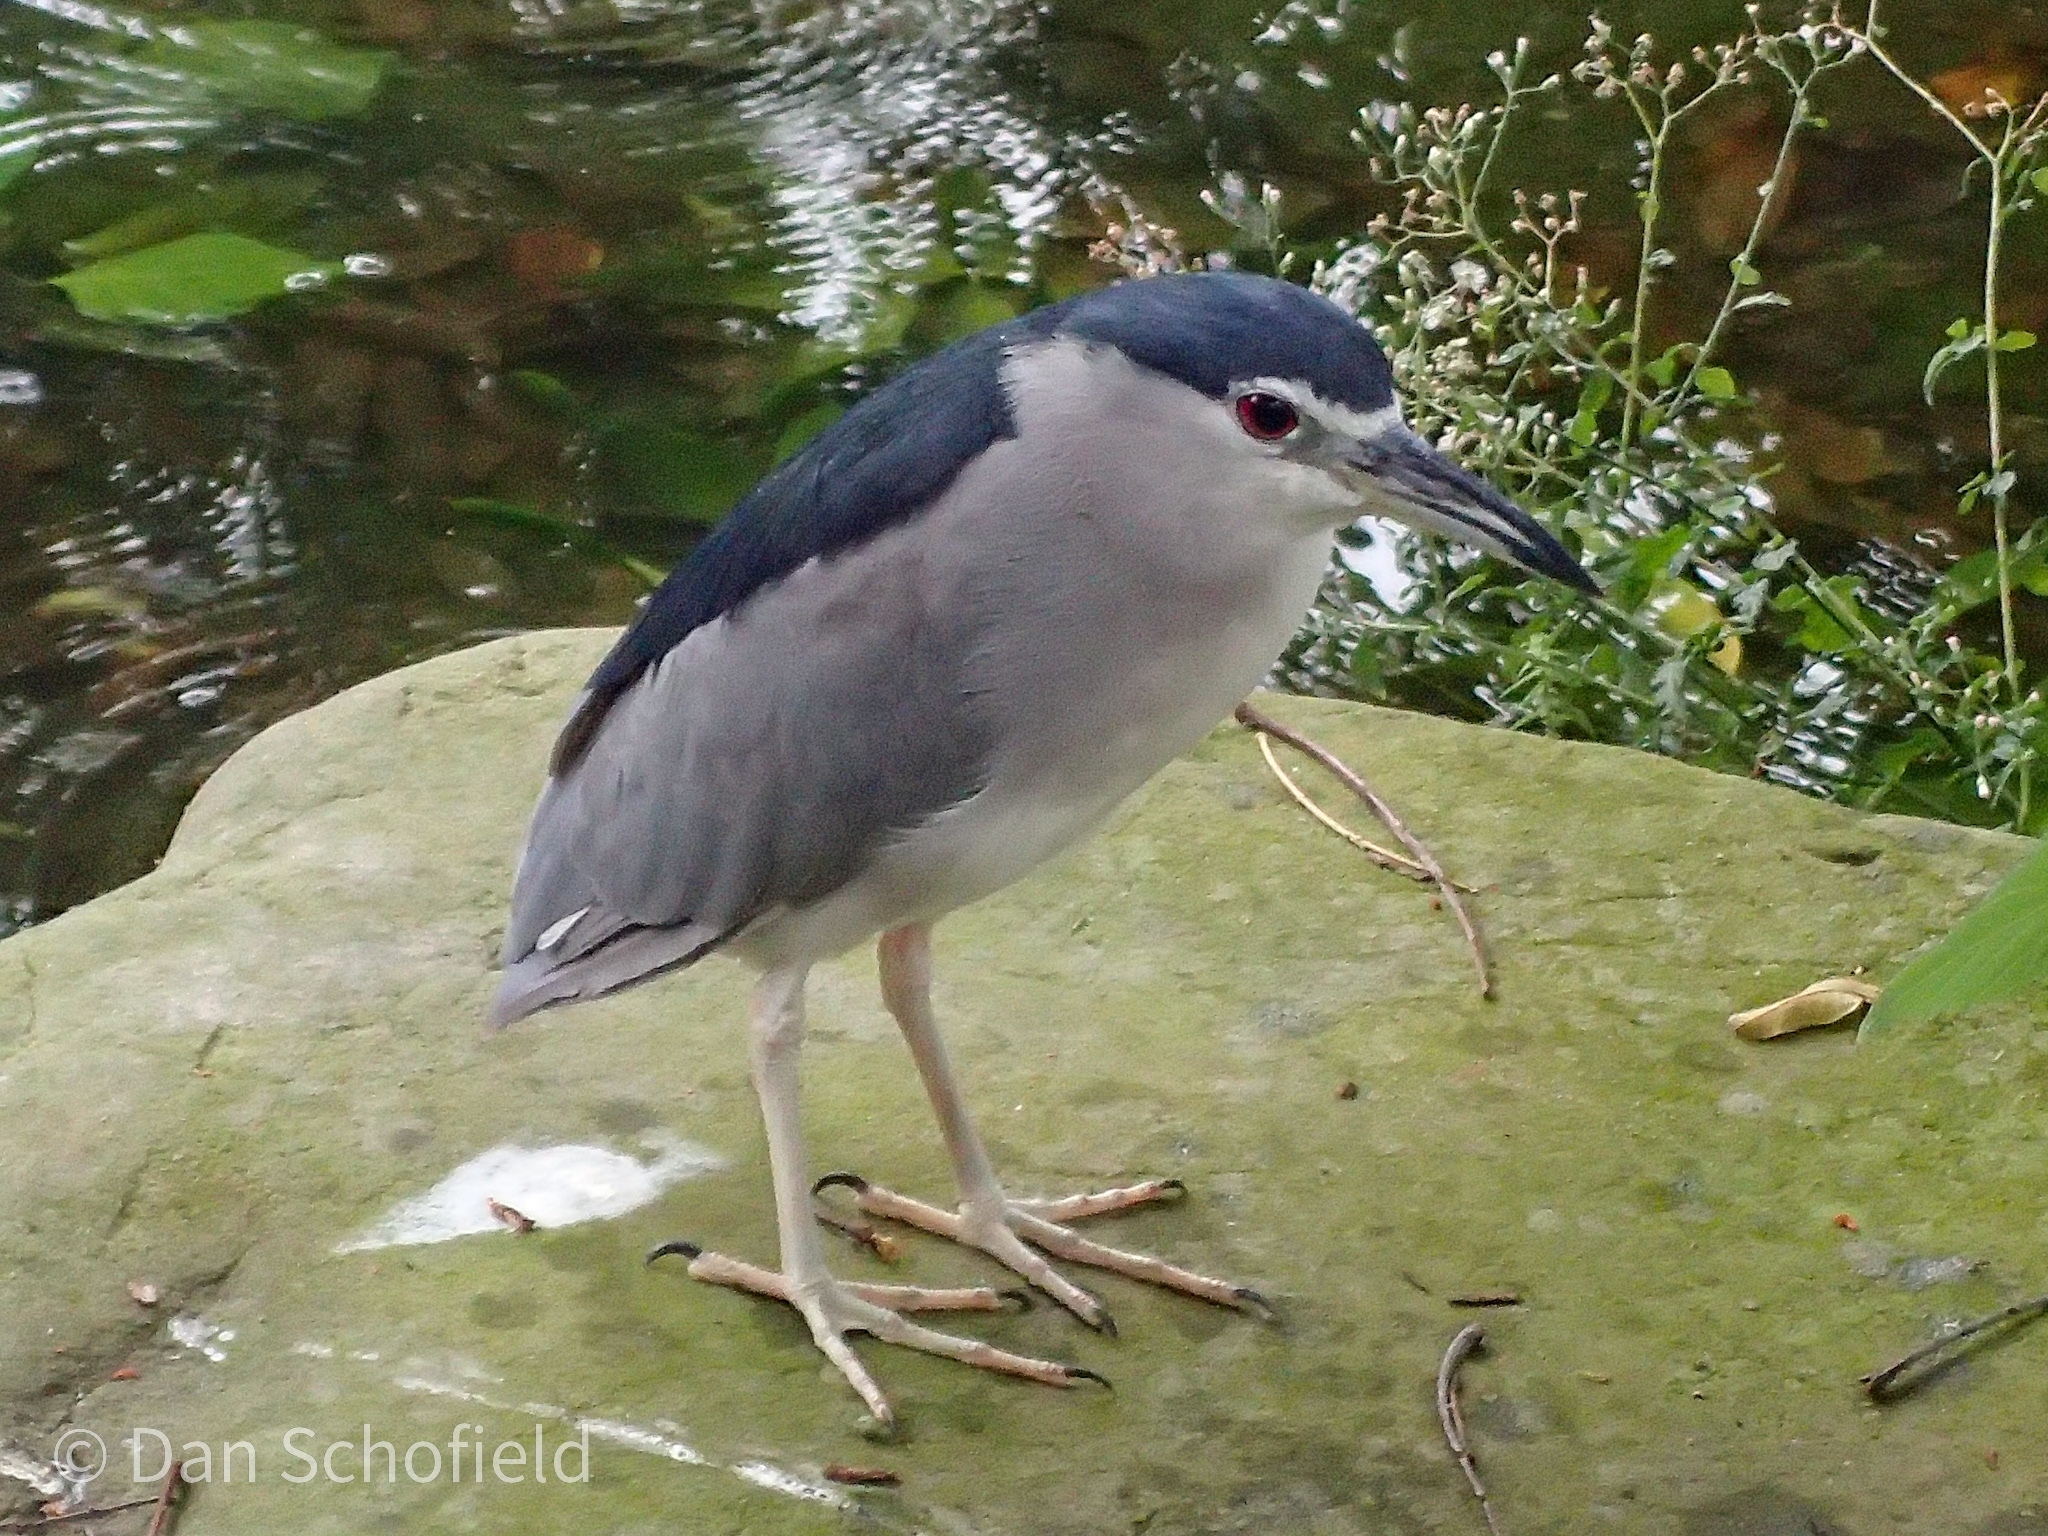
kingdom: Animalia
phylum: Chordata
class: Aves
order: Pelecaniformes
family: Ardeidae
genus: Nycticorax
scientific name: Nycticorax nycticorax
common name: Black-crowned night heron
